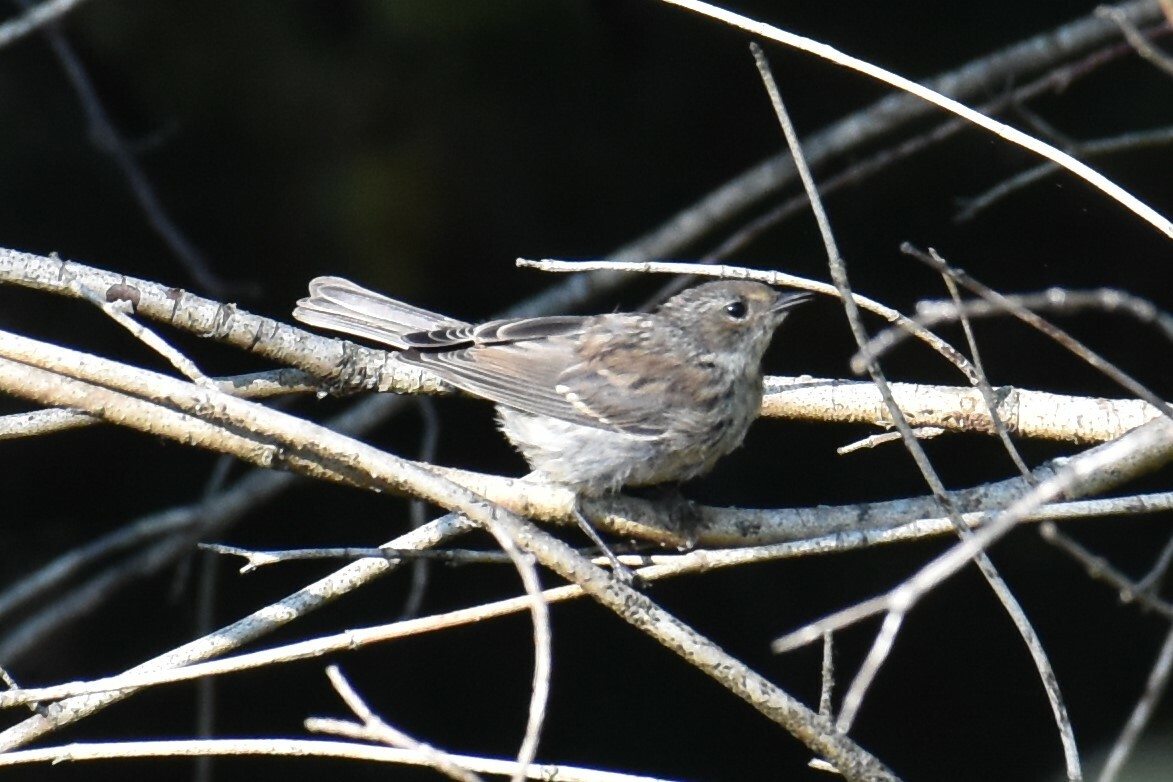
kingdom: Animalia
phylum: Chordata
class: Aves
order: Passeriformes
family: Parulidae
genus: Setophaga
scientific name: Setophaga coronata
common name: Myrtle warbler
